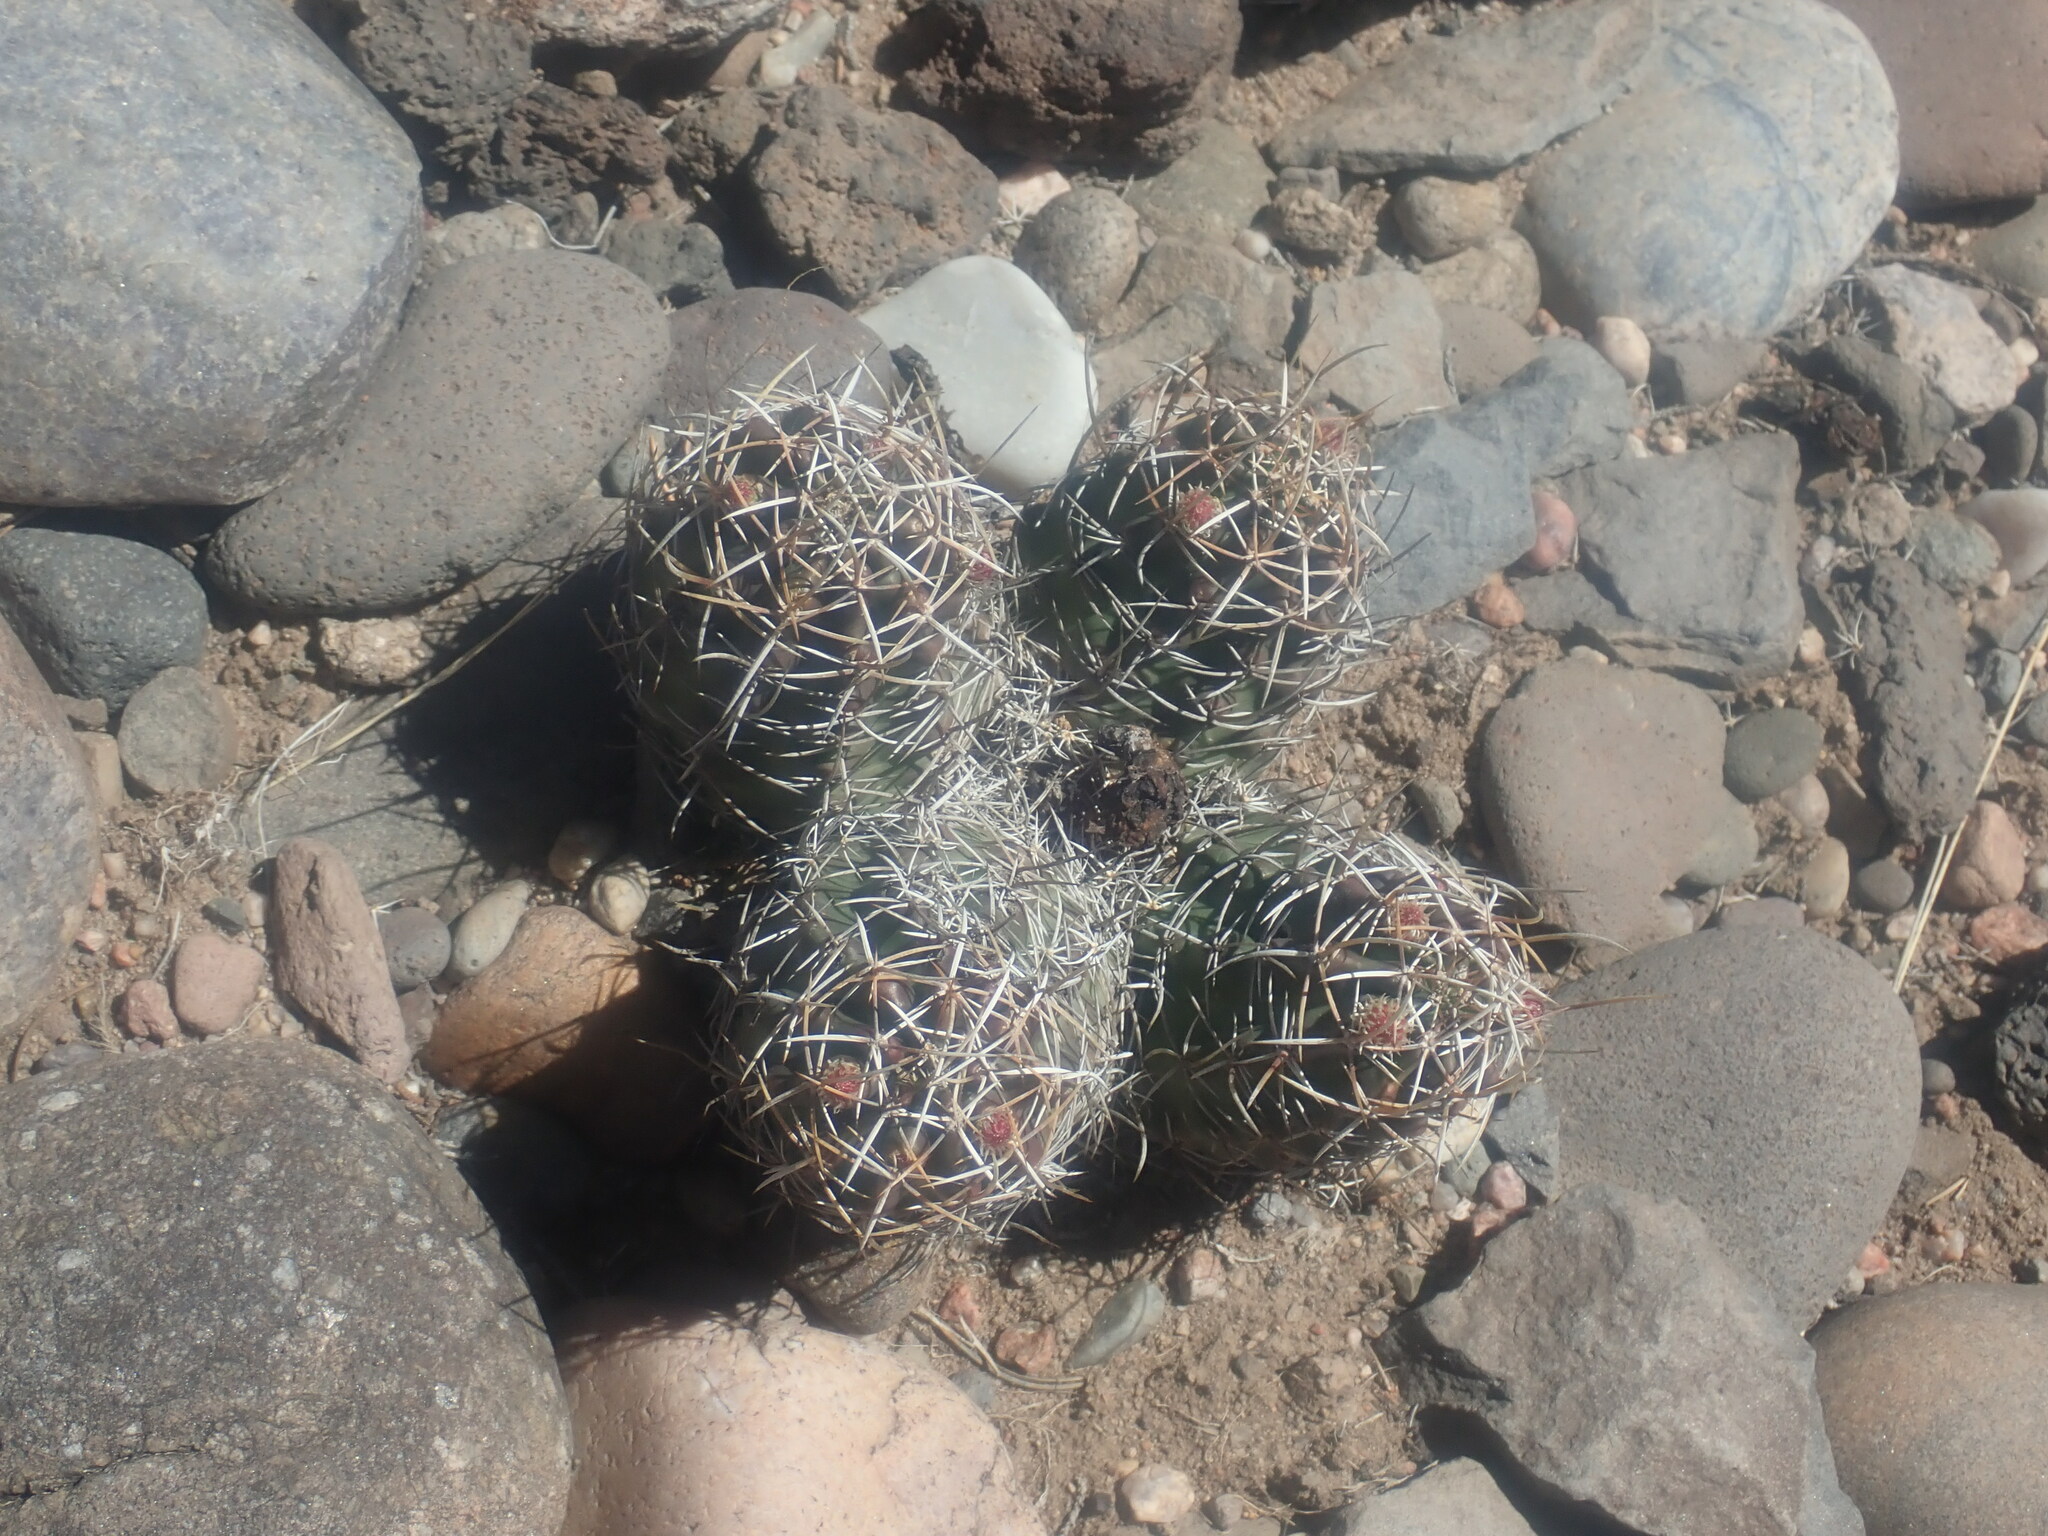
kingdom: Plantae
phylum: Tracheophyta
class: Magnoliopsida
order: Caryophyllales
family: Cactaceae
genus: Echinocereus
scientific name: Echinocereus fendleri
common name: Fendler's hedgehog cactus
